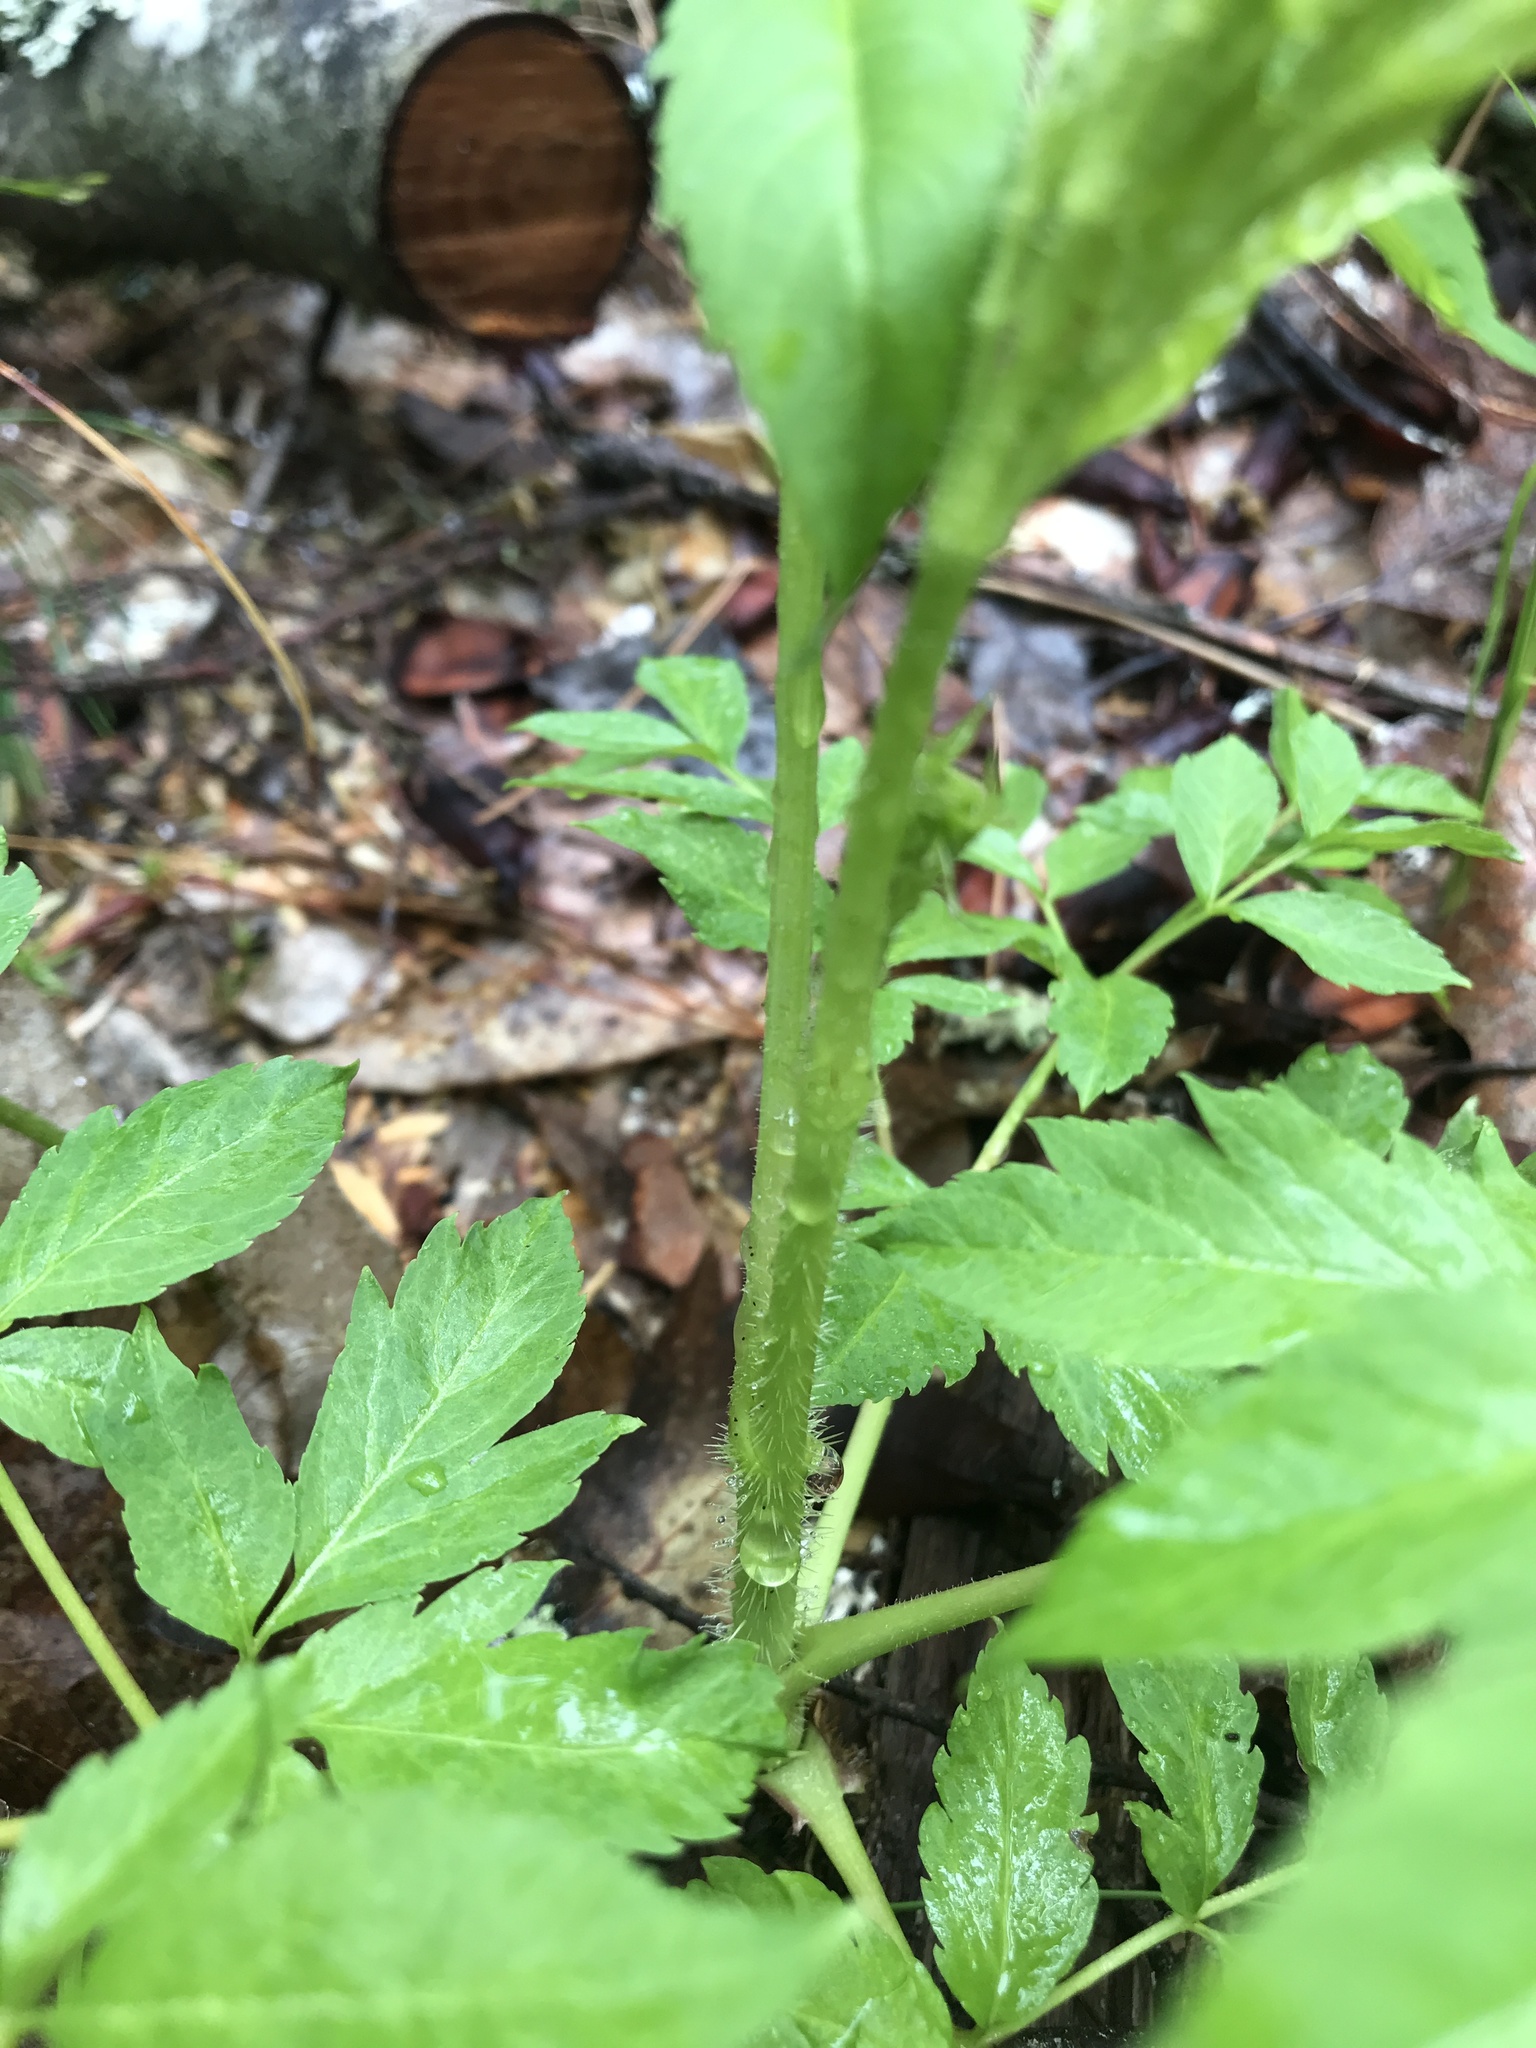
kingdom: Plantae
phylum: Tracheophyta
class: Magnoliopsida
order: Apiales
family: Araliaceae
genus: Aralia
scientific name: Aralia hispida
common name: Bristly sarsaparilla
